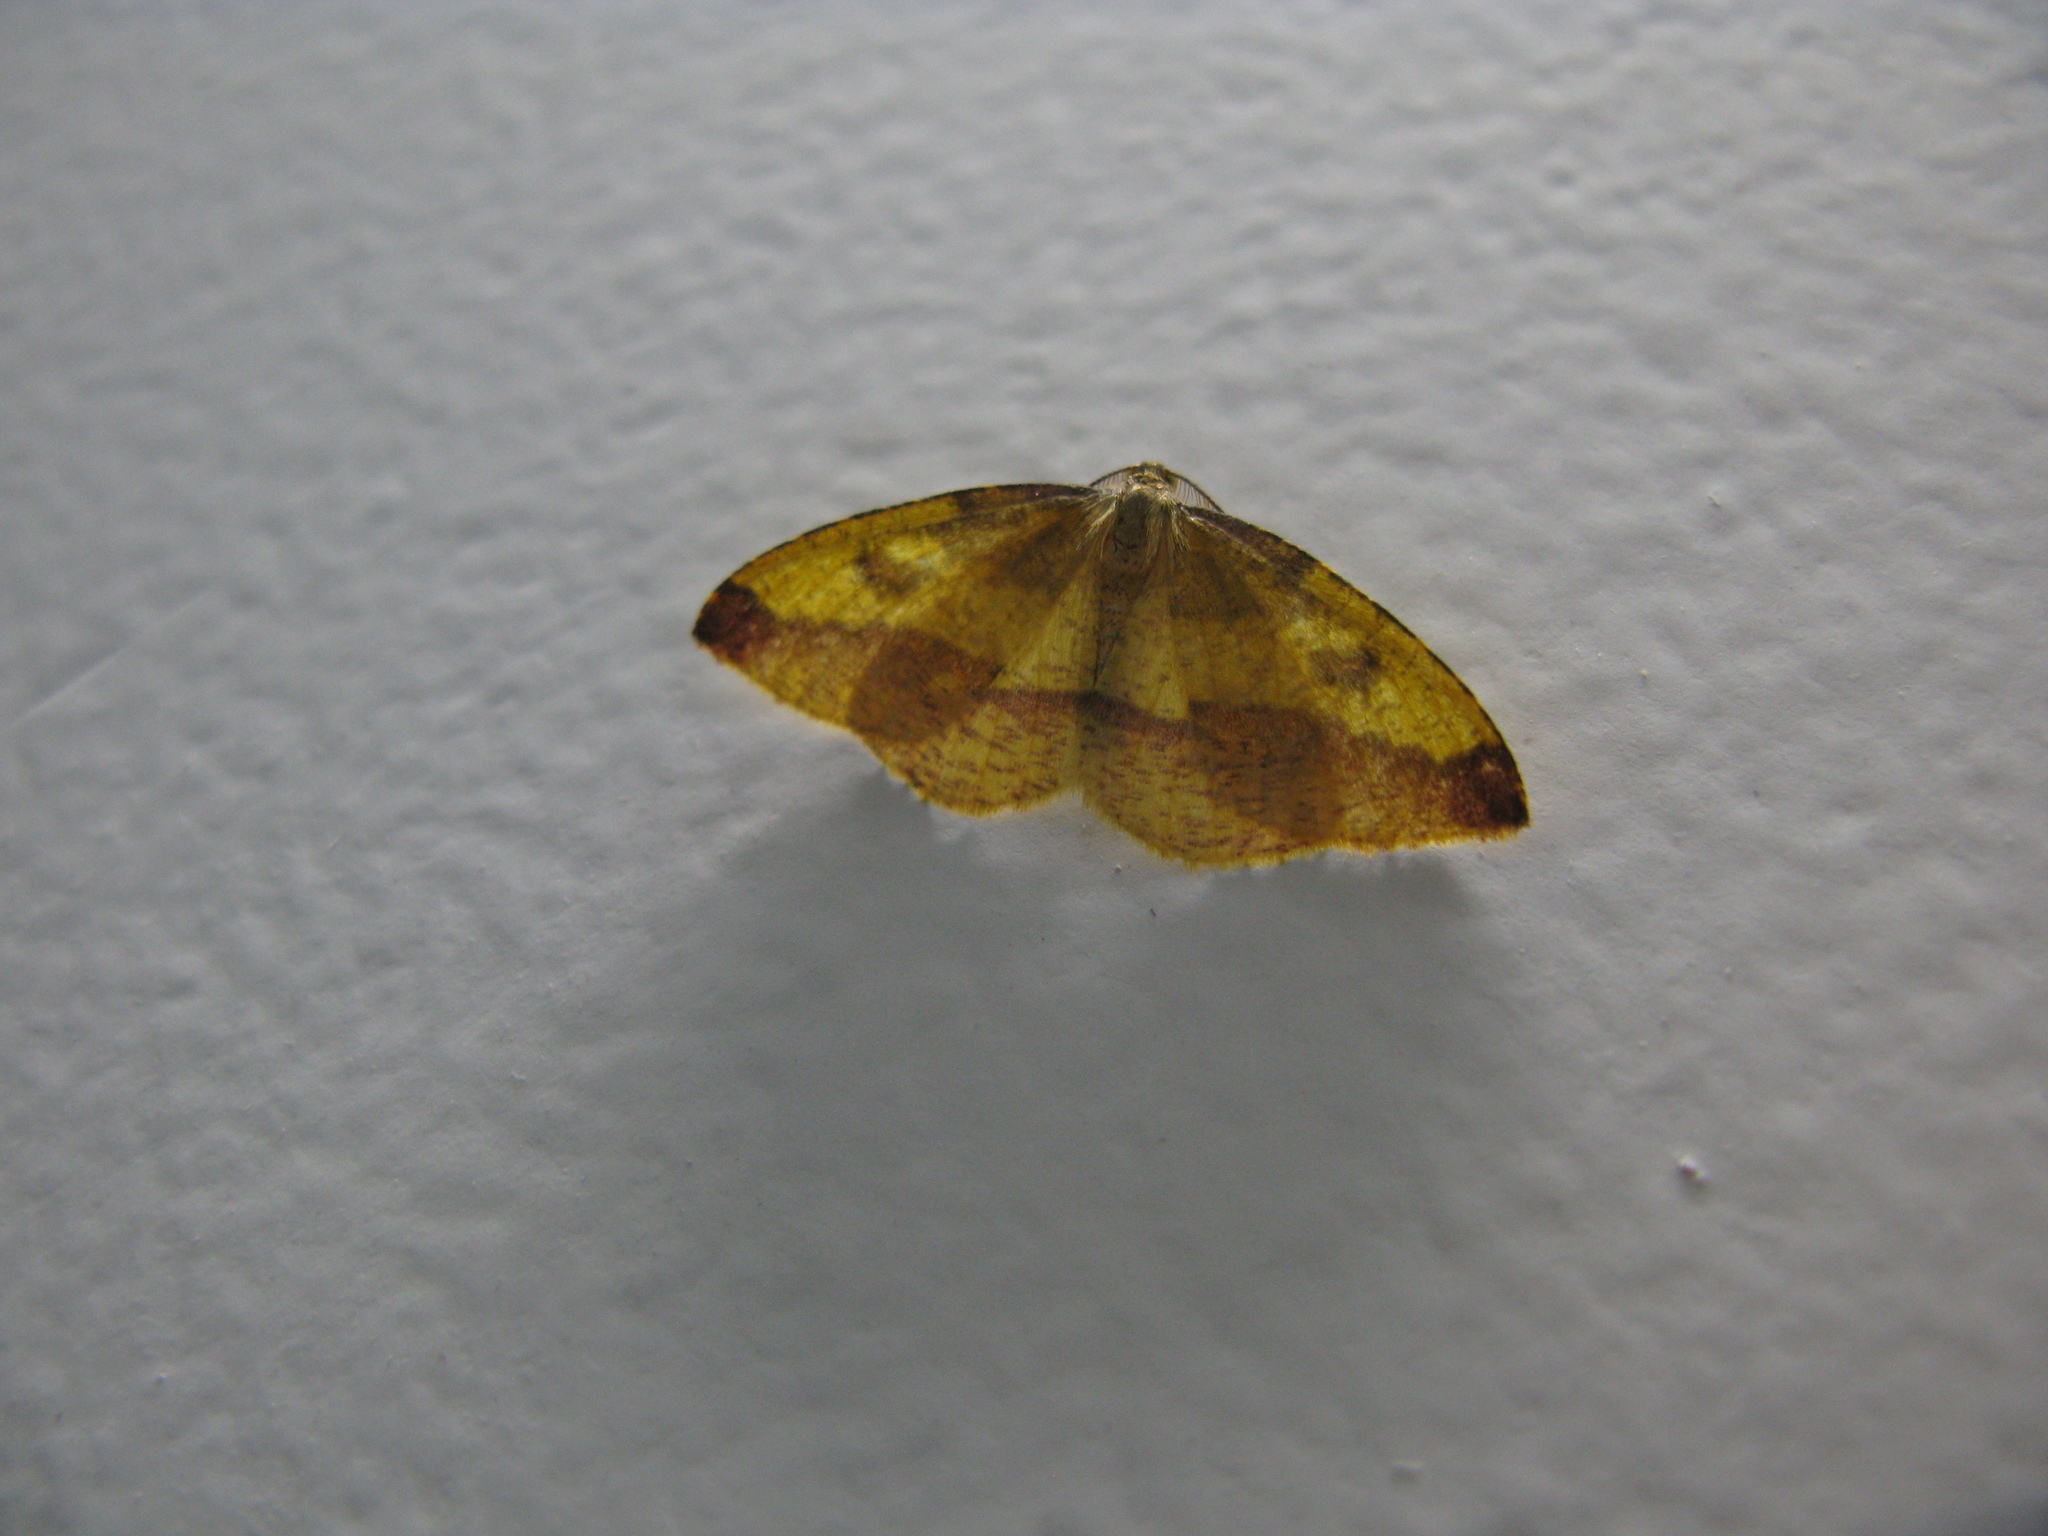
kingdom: Animalia
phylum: Arthropoda
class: Insecta
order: Lepidoptera
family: Geometridae
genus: Heterolocha
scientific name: Heterolocha laminaria
